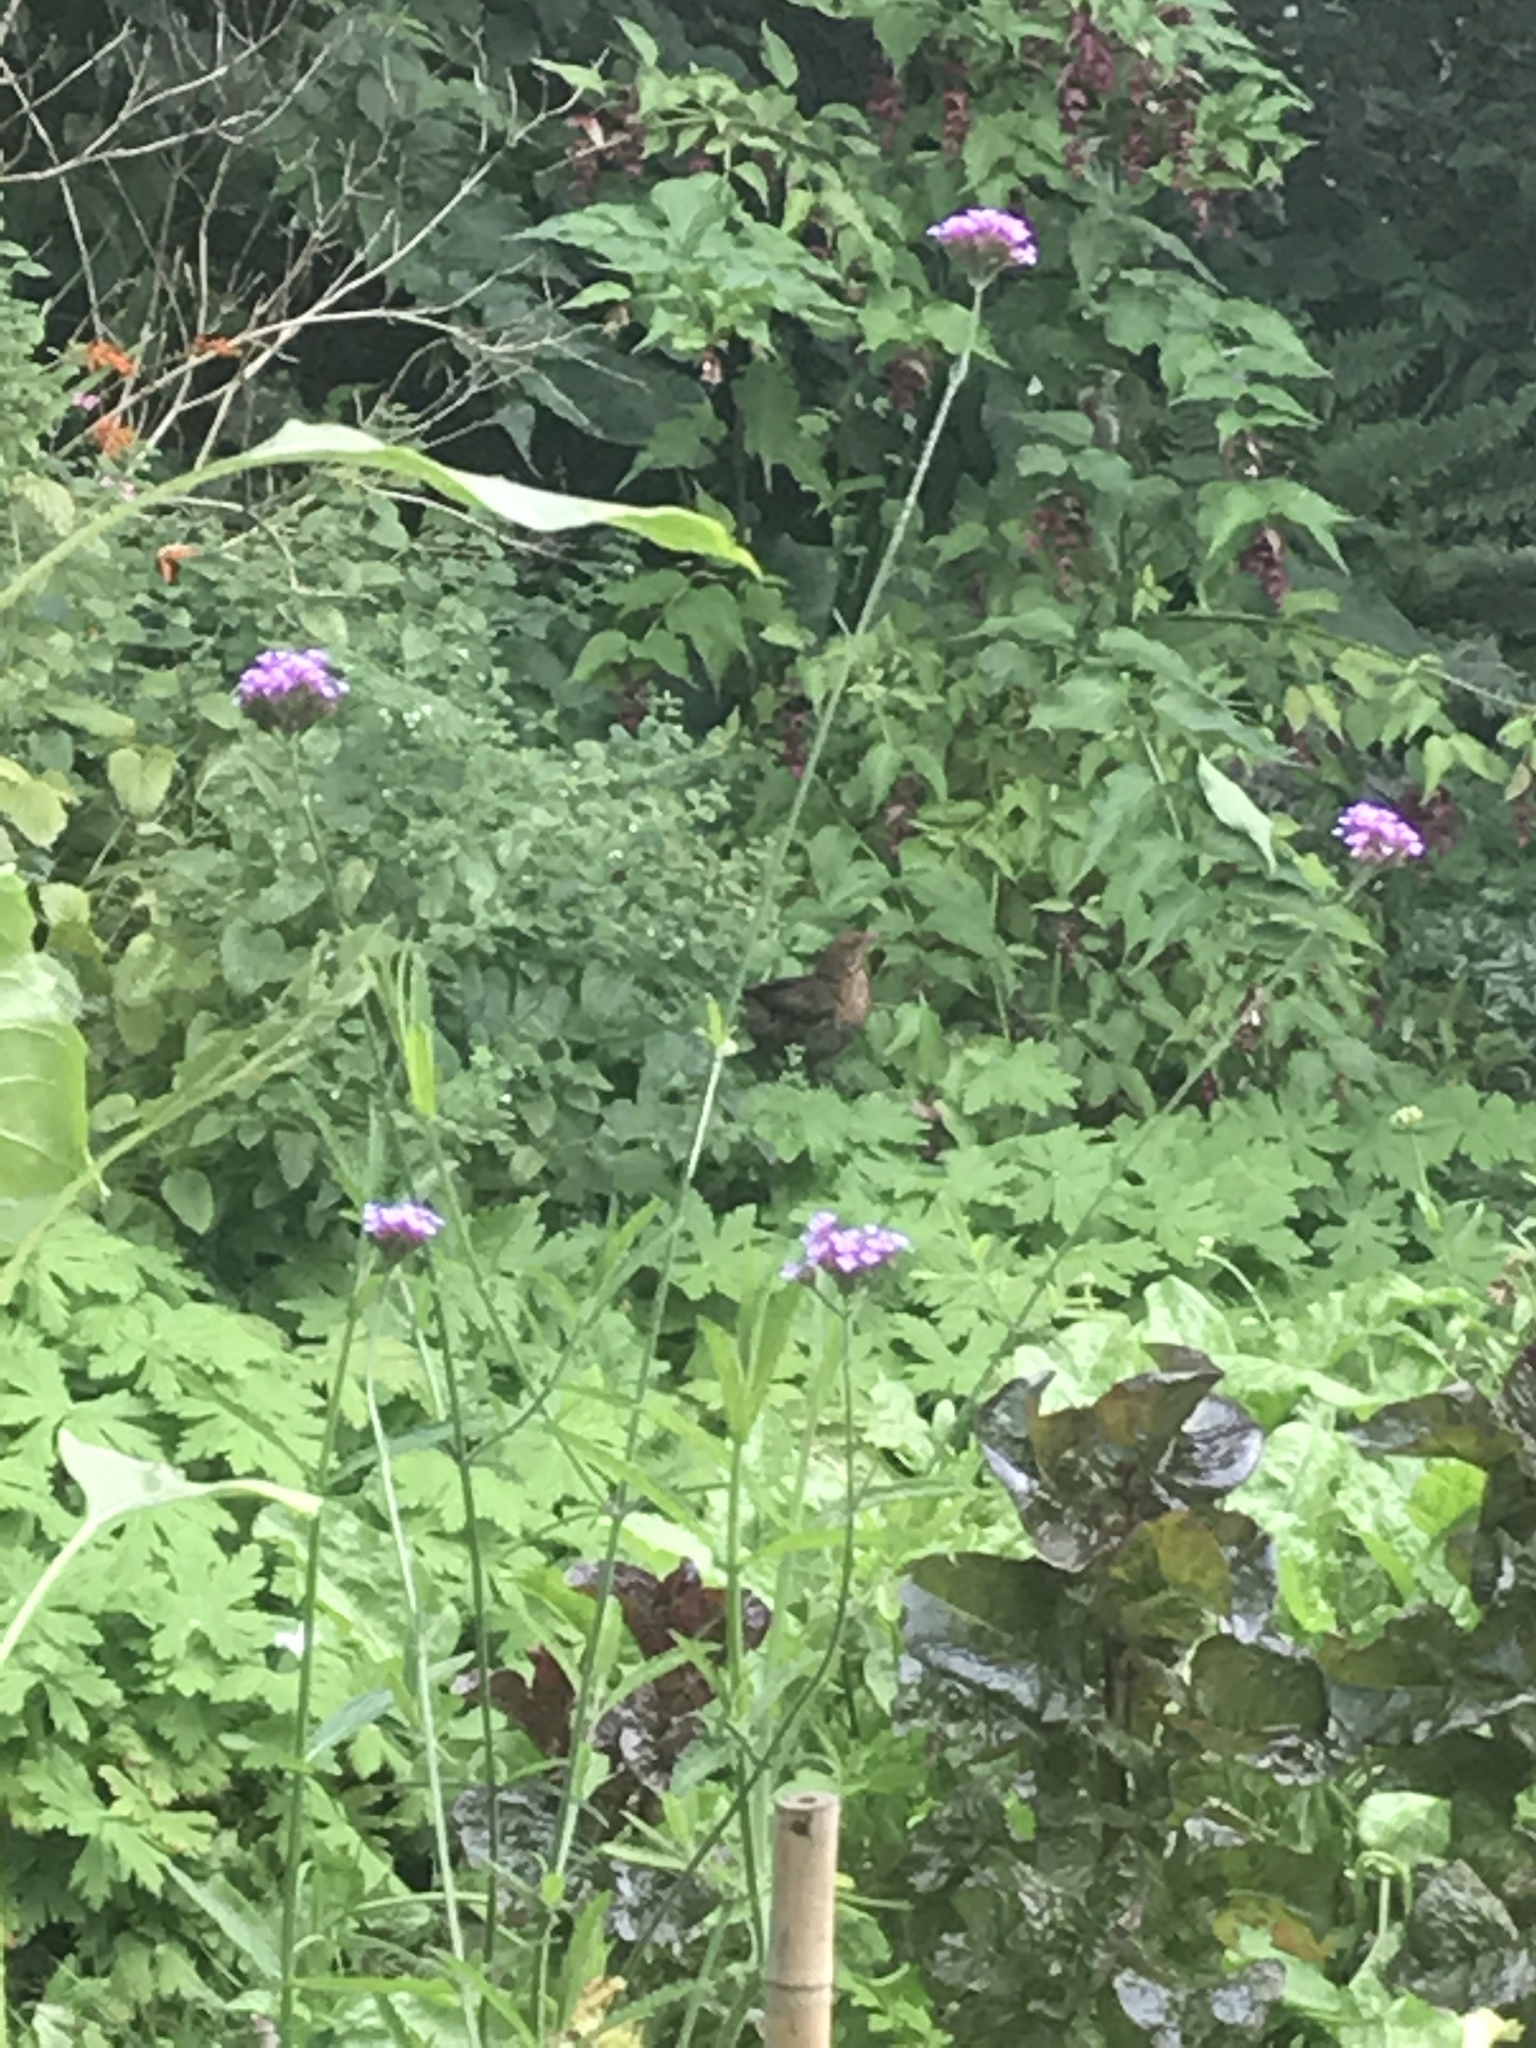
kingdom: Animalia
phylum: Chordata
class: Aves
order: Passeriformes
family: Turdidae
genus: Turdus
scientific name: Turdus merula
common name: Common blackbird
